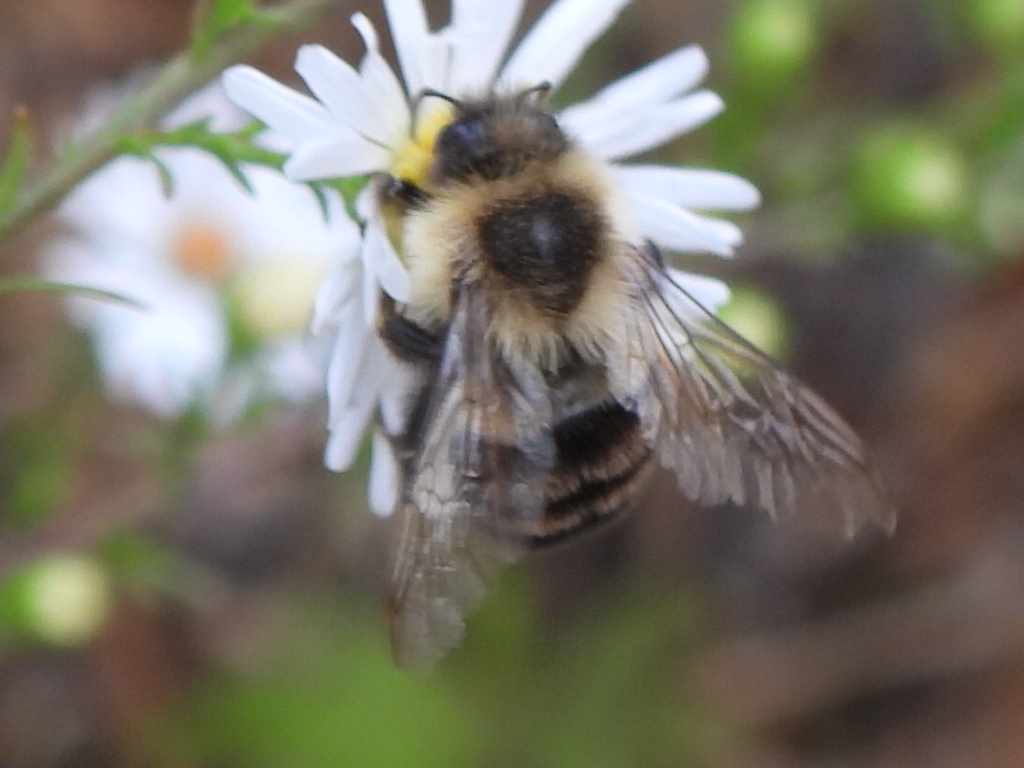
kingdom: Animalia
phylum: Arthropoda
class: Insecta
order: Hymenoptera
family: Apidae
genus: Bombus
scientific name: Bombus impatiens
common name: Common eastern bumble bee
